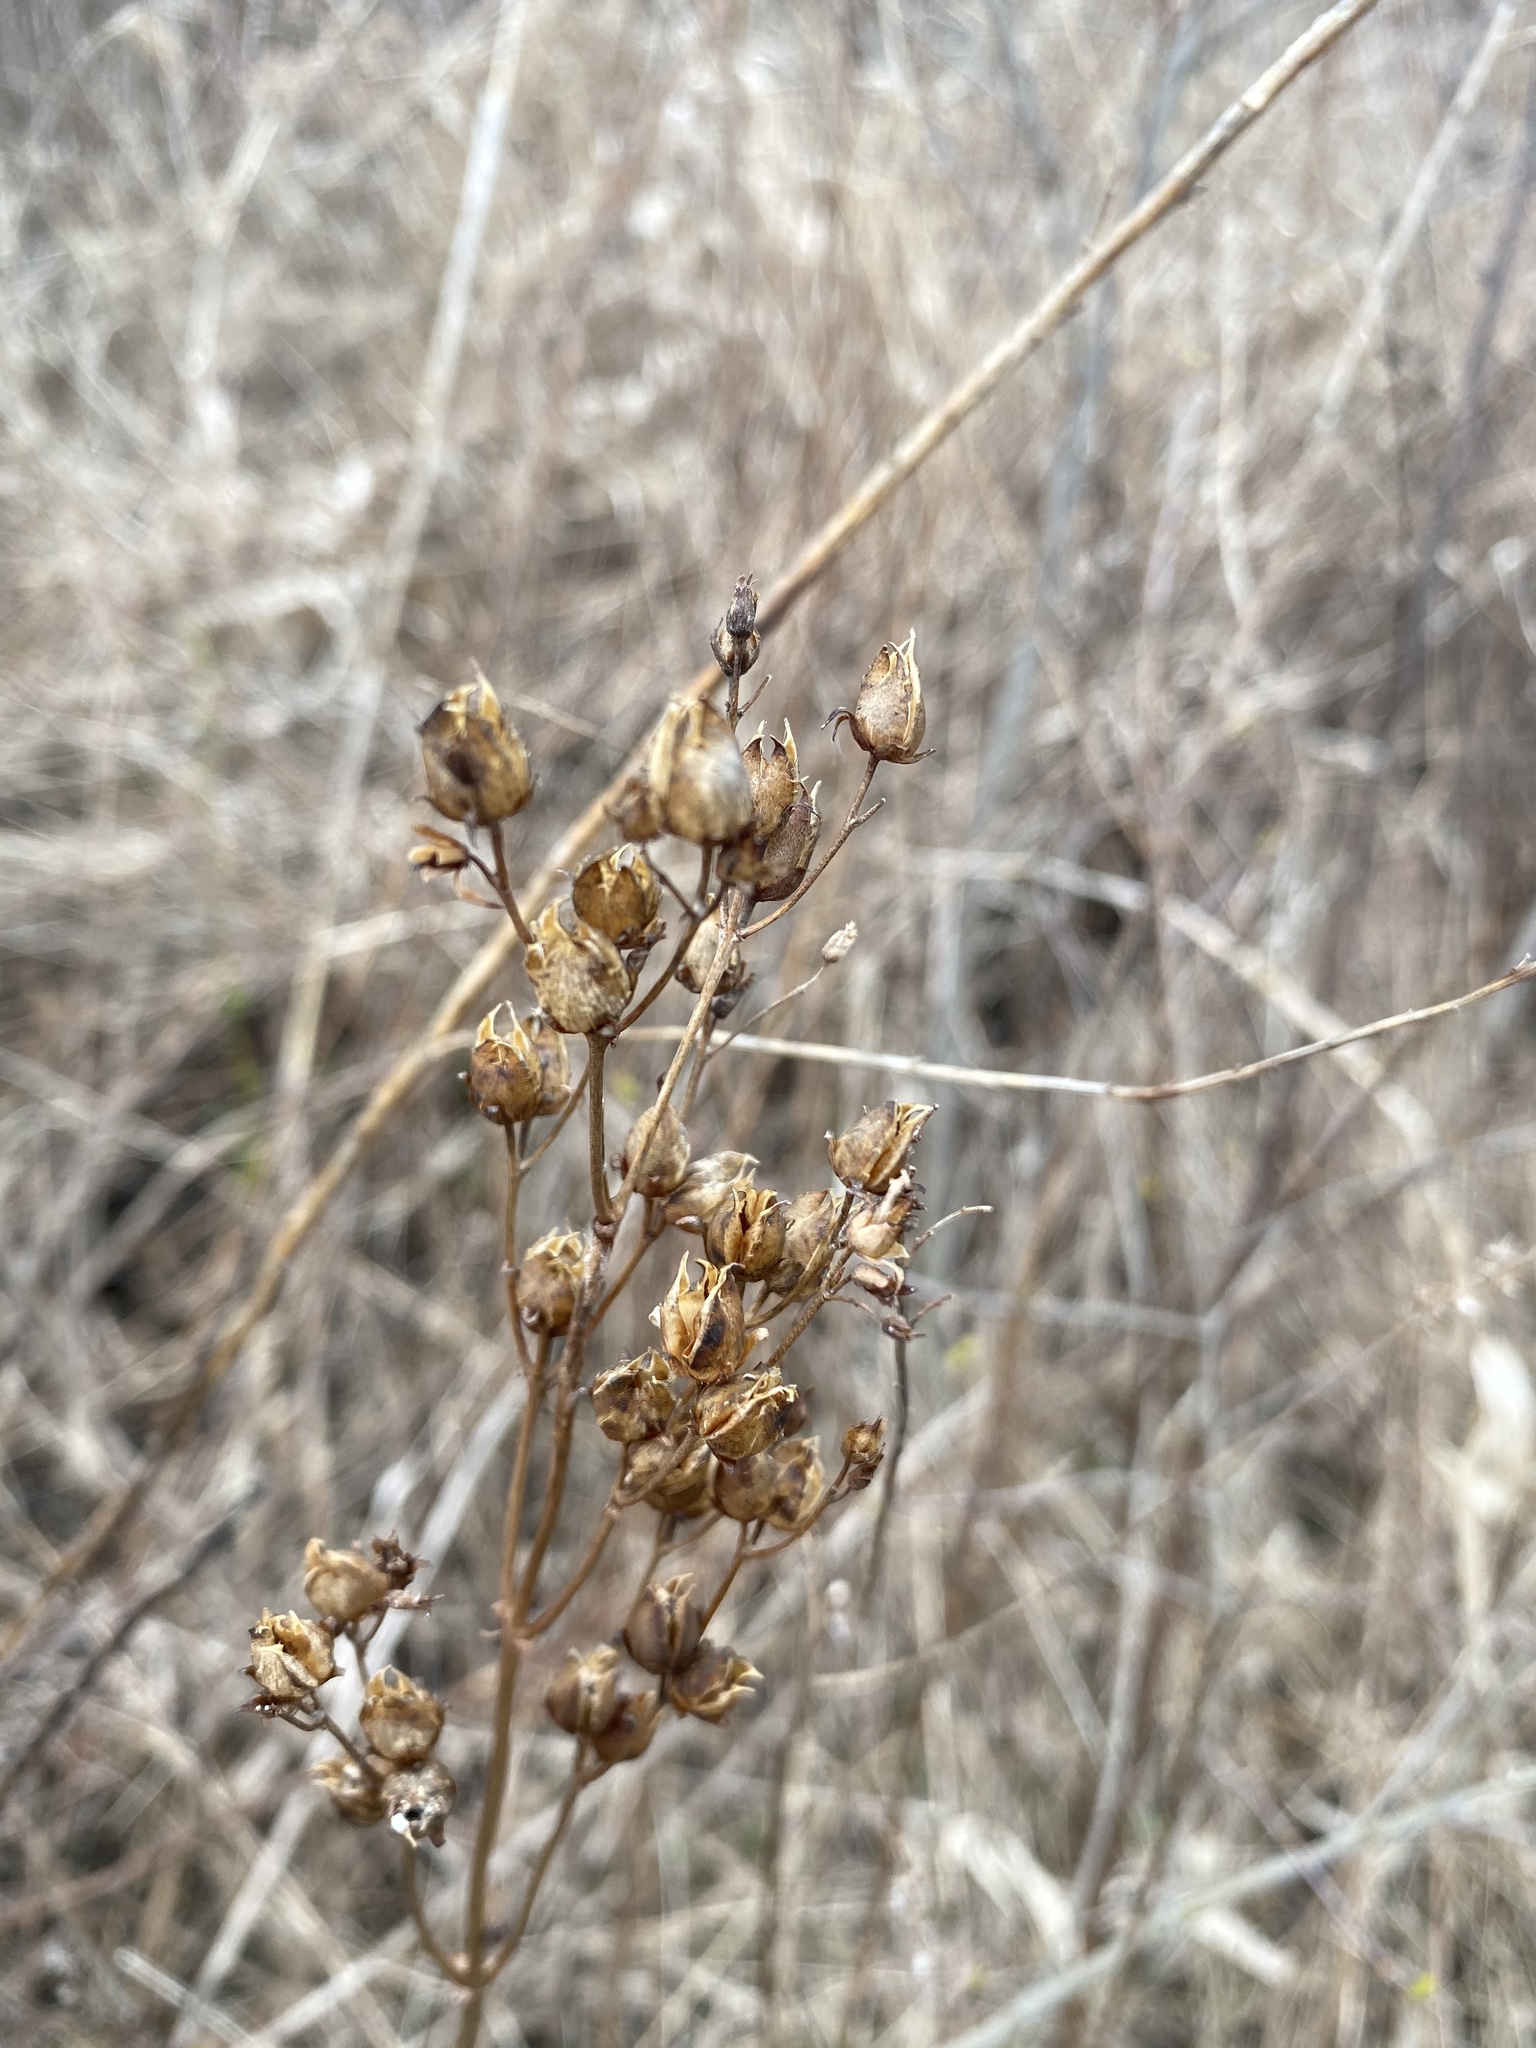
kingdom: Plantae
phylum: Tracheophyta
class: Magnoliopsida
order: Lamiales
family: Plantaginaceae
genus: Penstemon
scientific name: Penstemon digitalis
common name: Foxglove beardtongue
